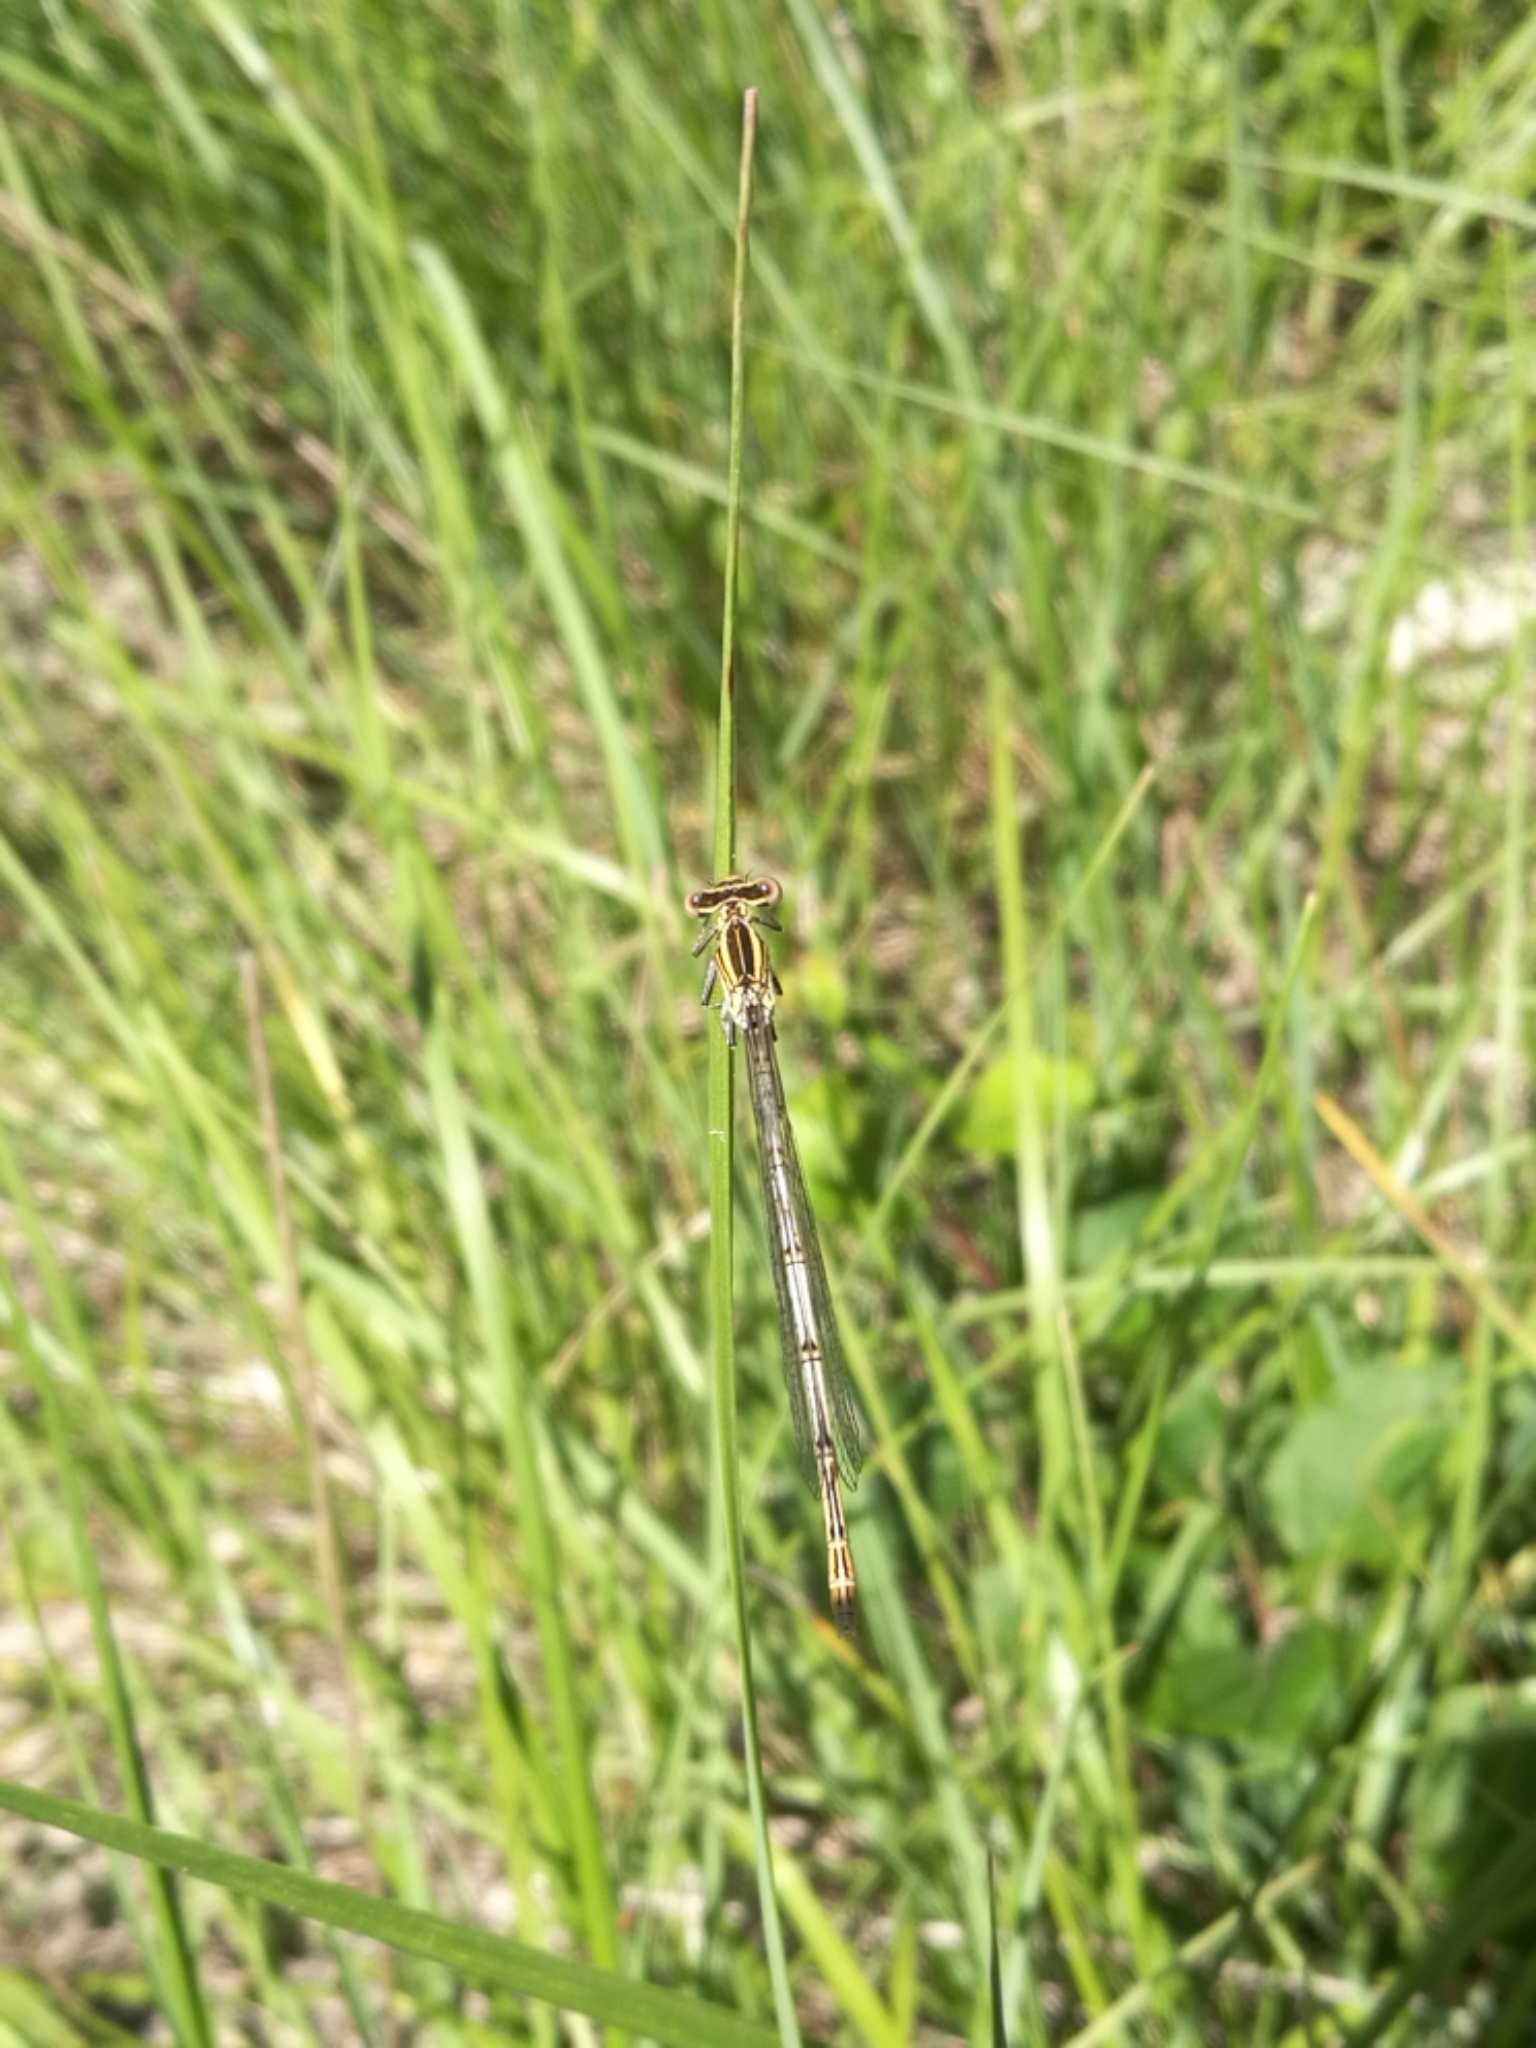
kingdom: Animalia
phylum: Arthropoda
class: Insecta
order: Odonata
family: Platycnemididae
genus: Platycnemis
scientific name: Platycnemis pennipes
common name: White-legged damselfly
